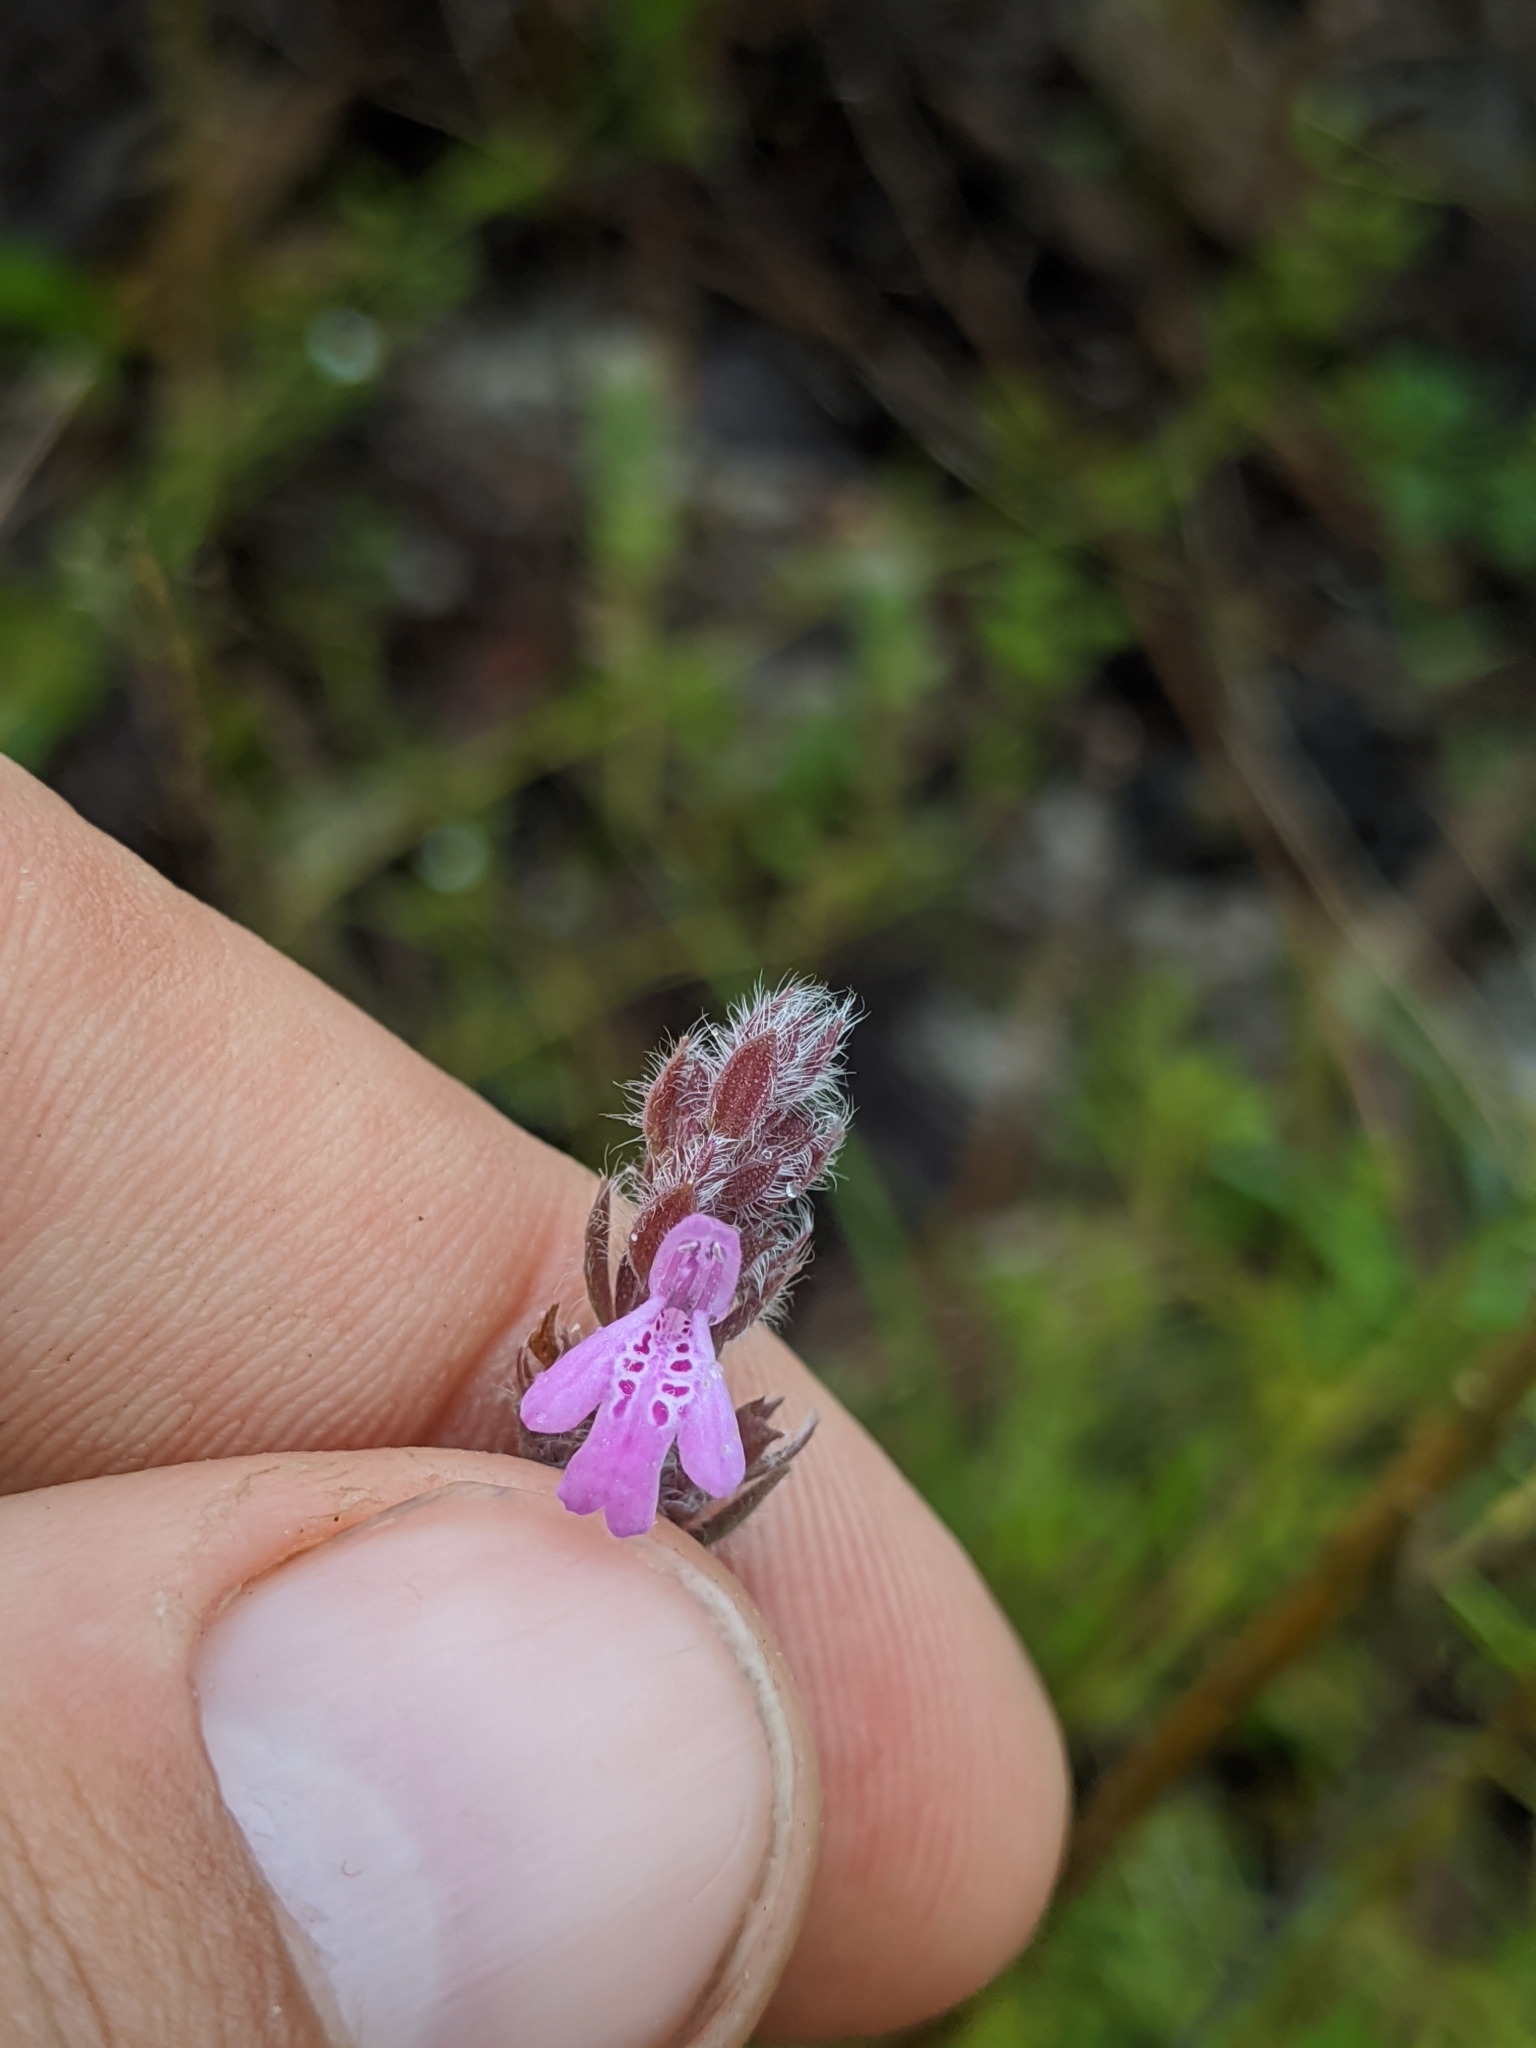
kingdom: Plantae
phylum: Tracheophyta
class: Magnoliopsida
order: Lamiales
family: Lamiaceae
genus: Stachydeoma
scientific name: Stachydeoma graveolens
